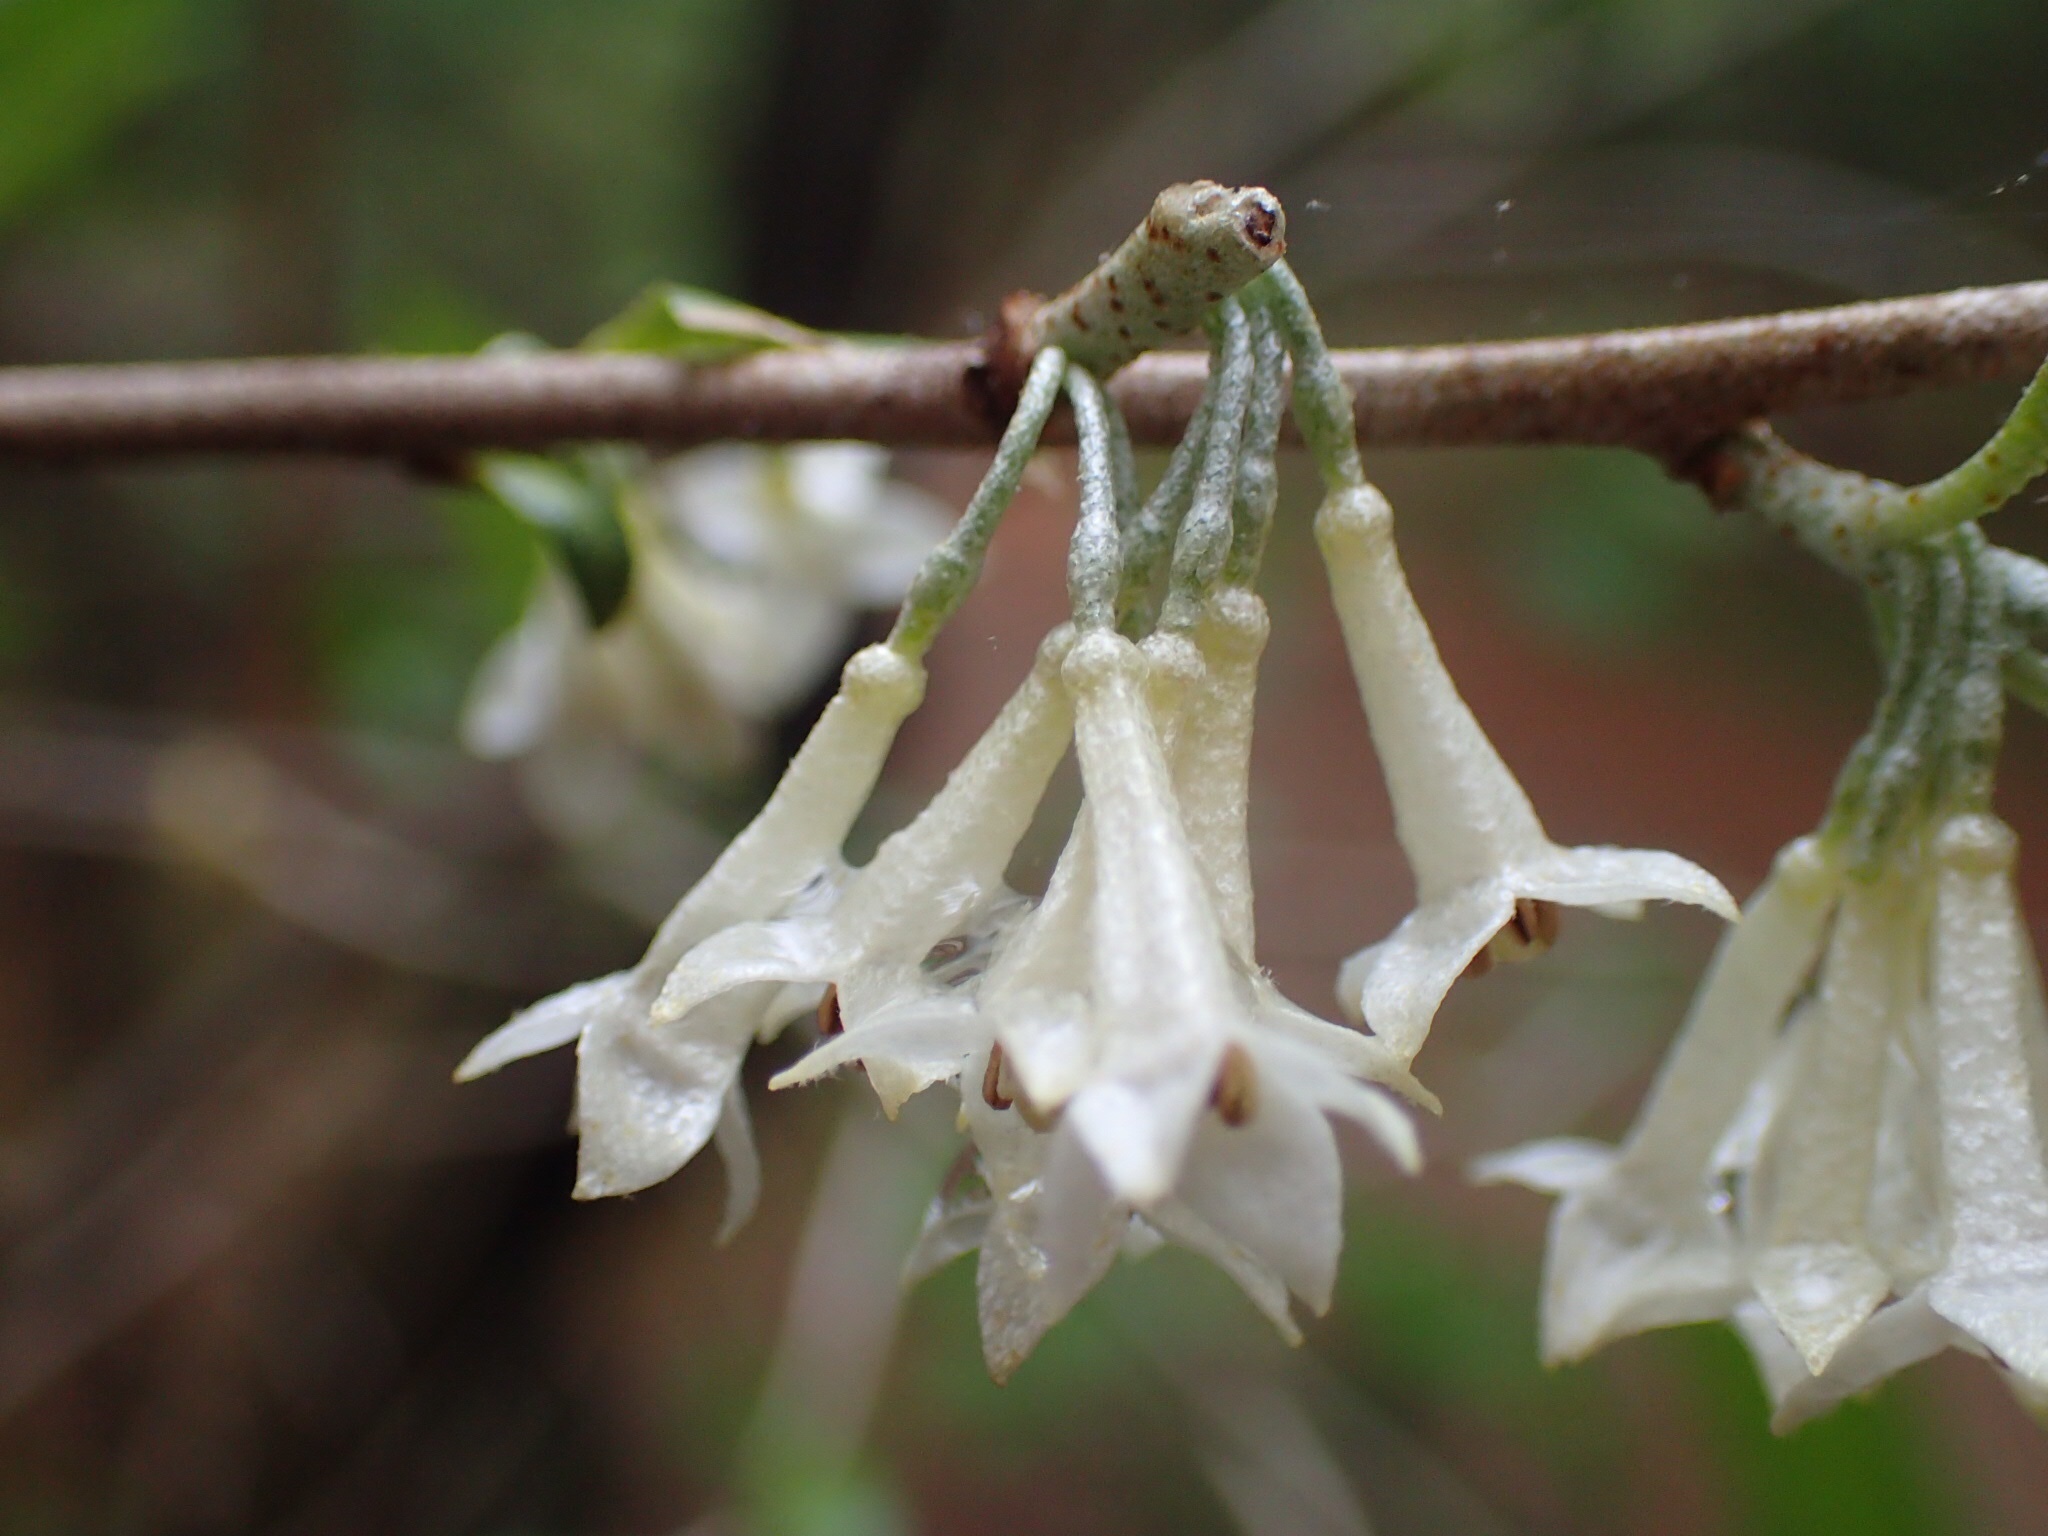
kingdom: Plantae
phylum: Tracheophyta
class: Magnoliopsida
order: Rosales
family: Elaeagnaceae
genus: Elaeagnus
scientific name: Elaeagnus umbellata
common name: Autumn olive
